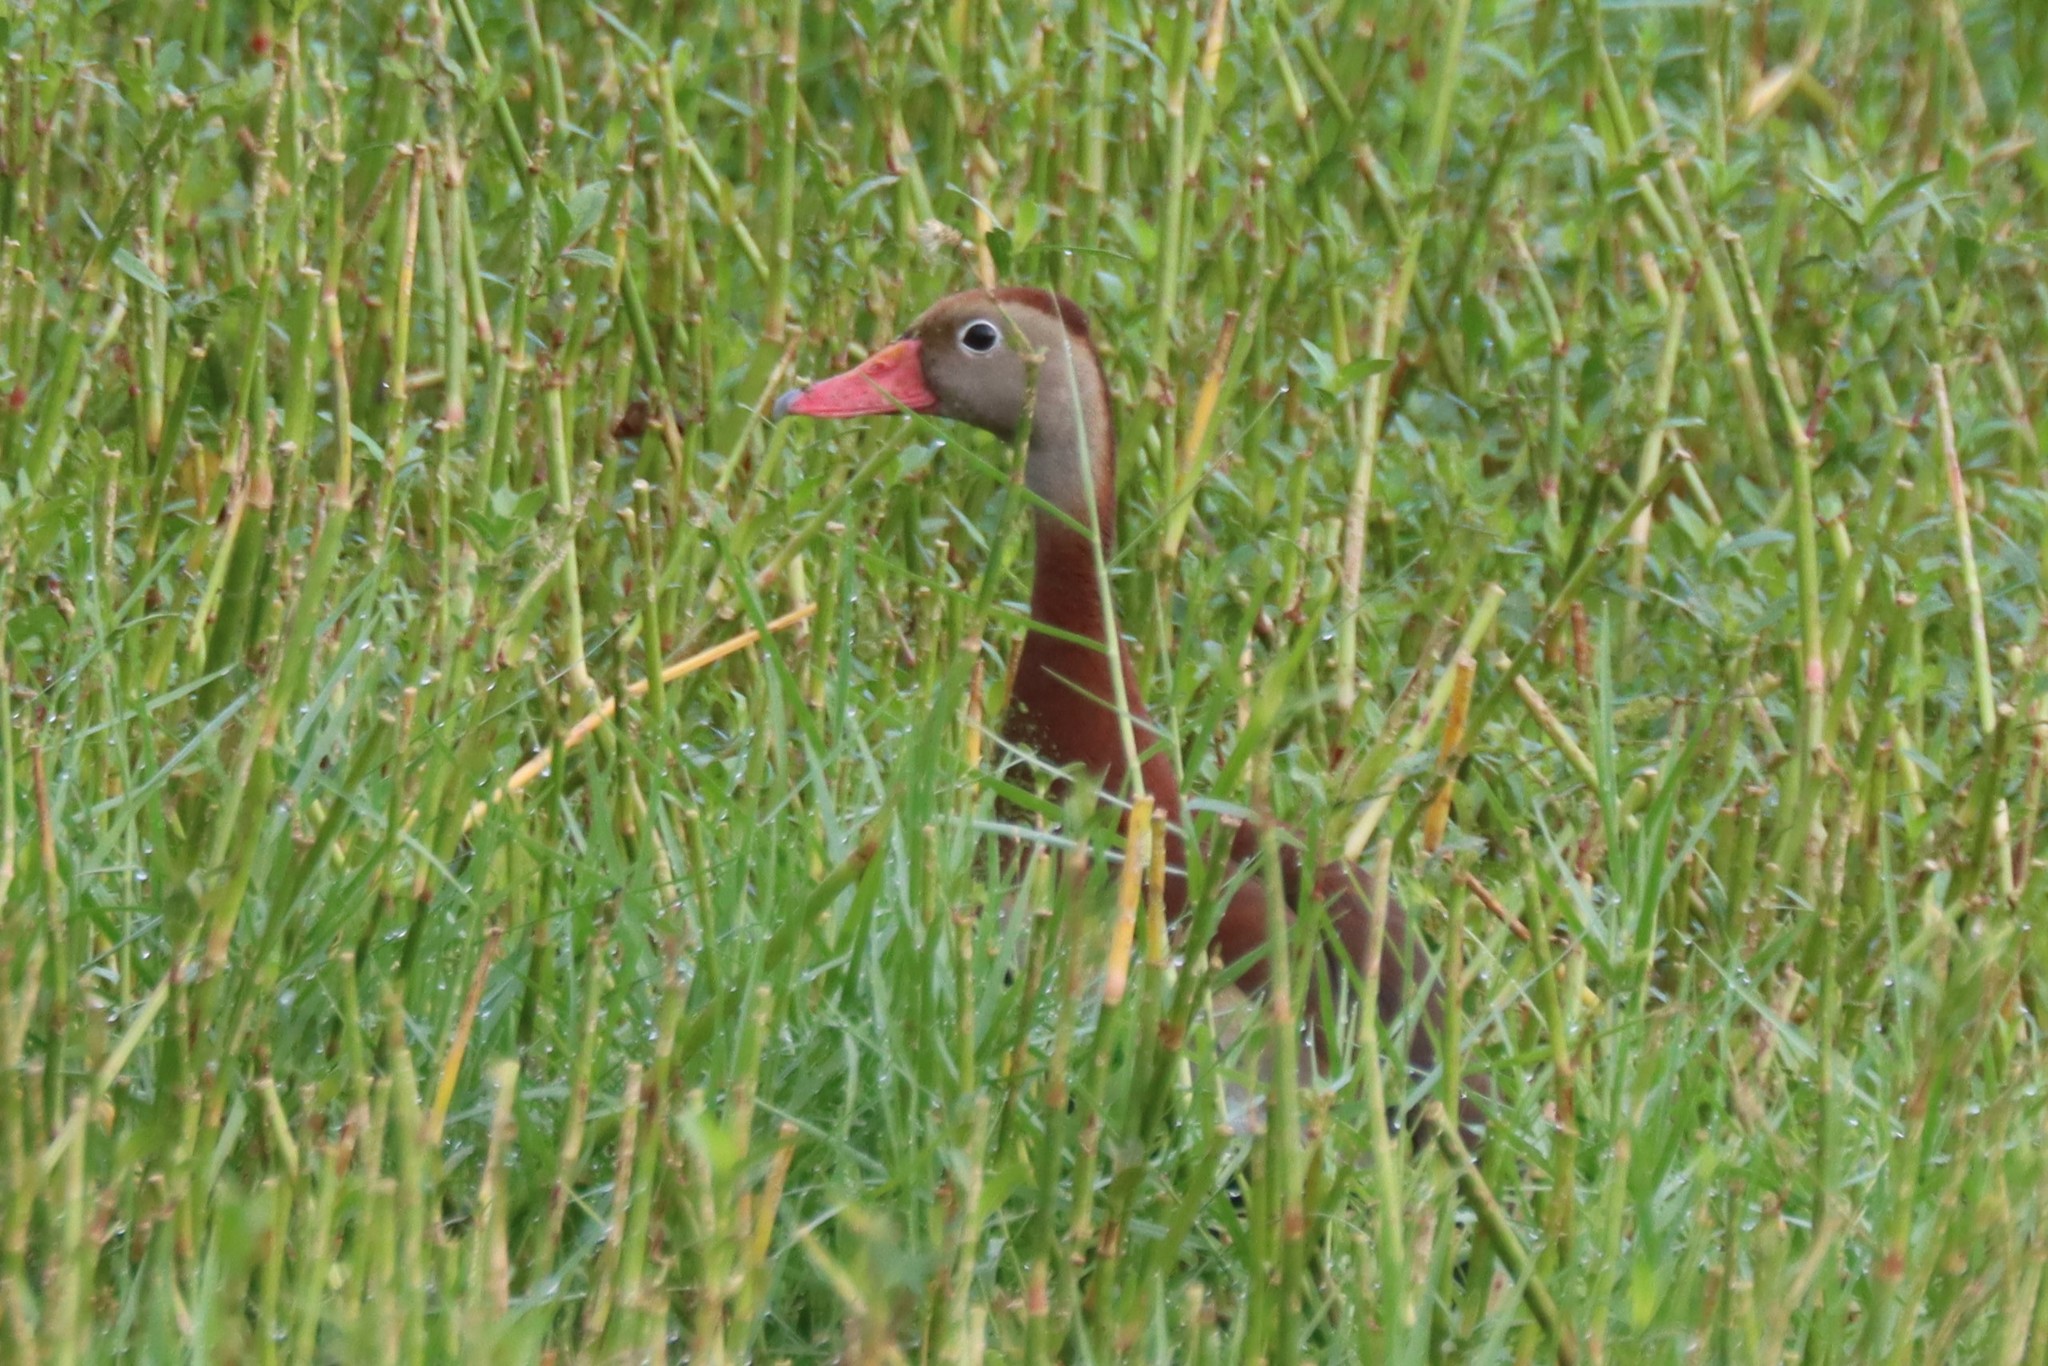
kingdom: Animalia
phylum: Chordata
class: Aves
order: Anseriformes
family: Anatidae
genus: Dendrocygna
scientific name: Dendrocygna autumnalis
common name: Black-bellied whistling duck
